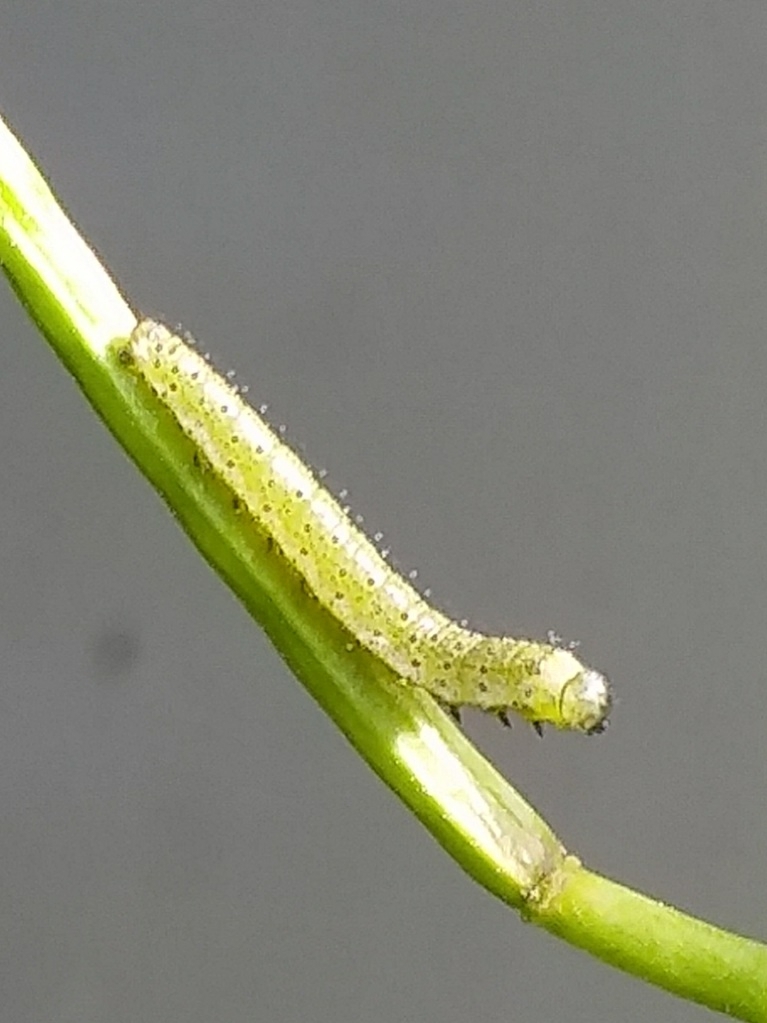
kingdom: Animalia
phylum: Arthropoda
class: Insecta
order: Lepidoptera
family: Pieridae
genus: Anthocharis
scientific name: Anthocharis cardamines
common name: Orange-tip
